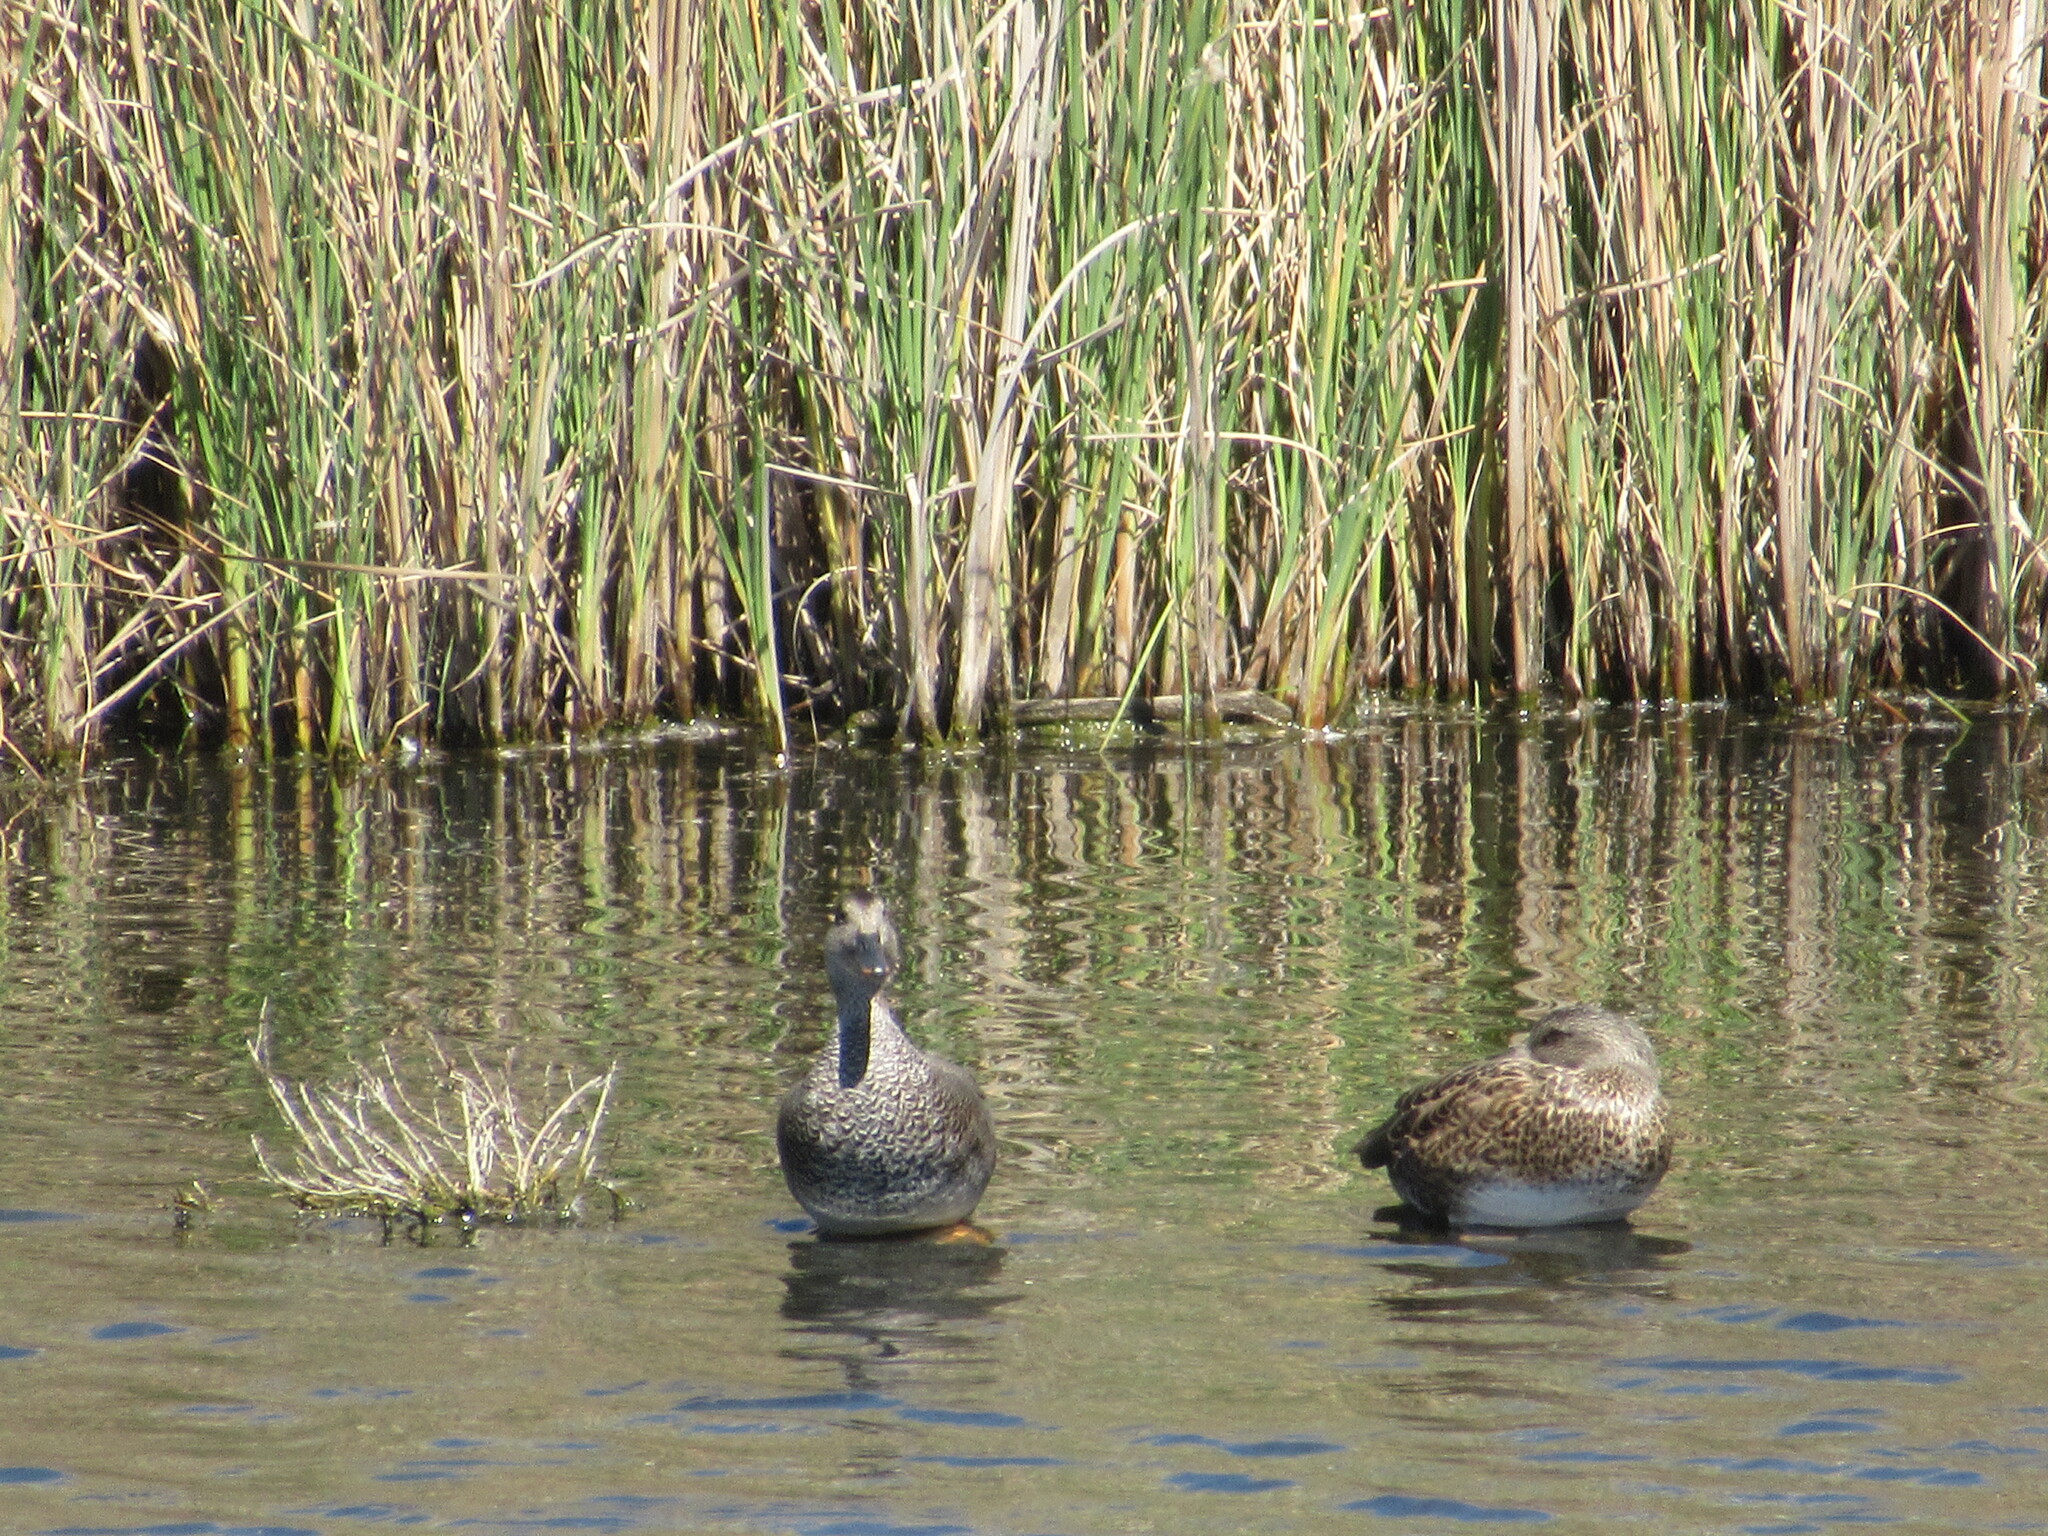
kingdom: Animalia
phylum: Chordata
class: Aves
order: Anseriformes
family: Anatidae
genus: Mareca
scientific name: Mareca strepera
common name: Gadwall
